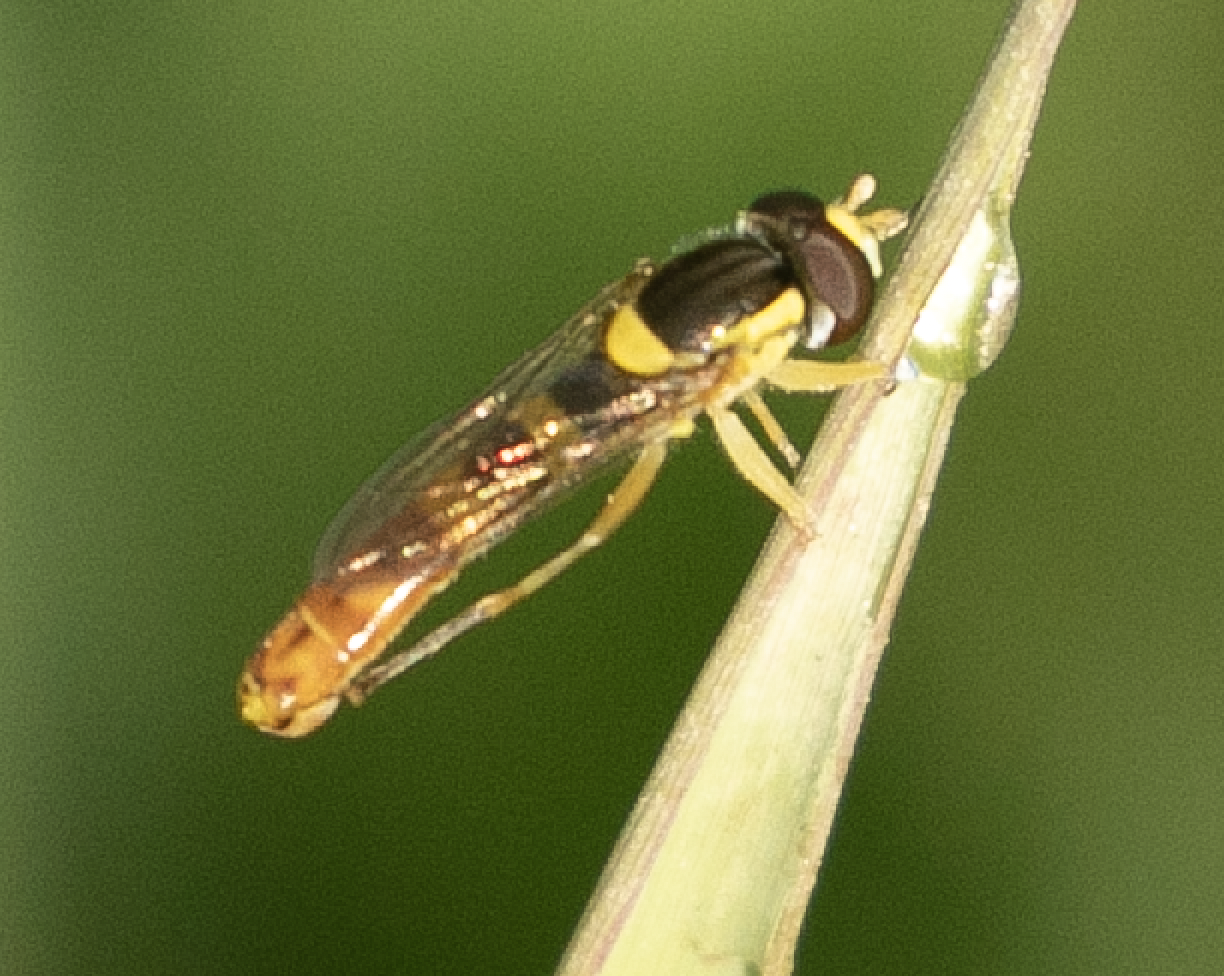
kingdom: Animalia
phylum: Arthropoda
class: Insecta
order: Diptera
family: Syrphidae
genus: Sphaerophoria
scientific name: Sphaerophoria scripta
